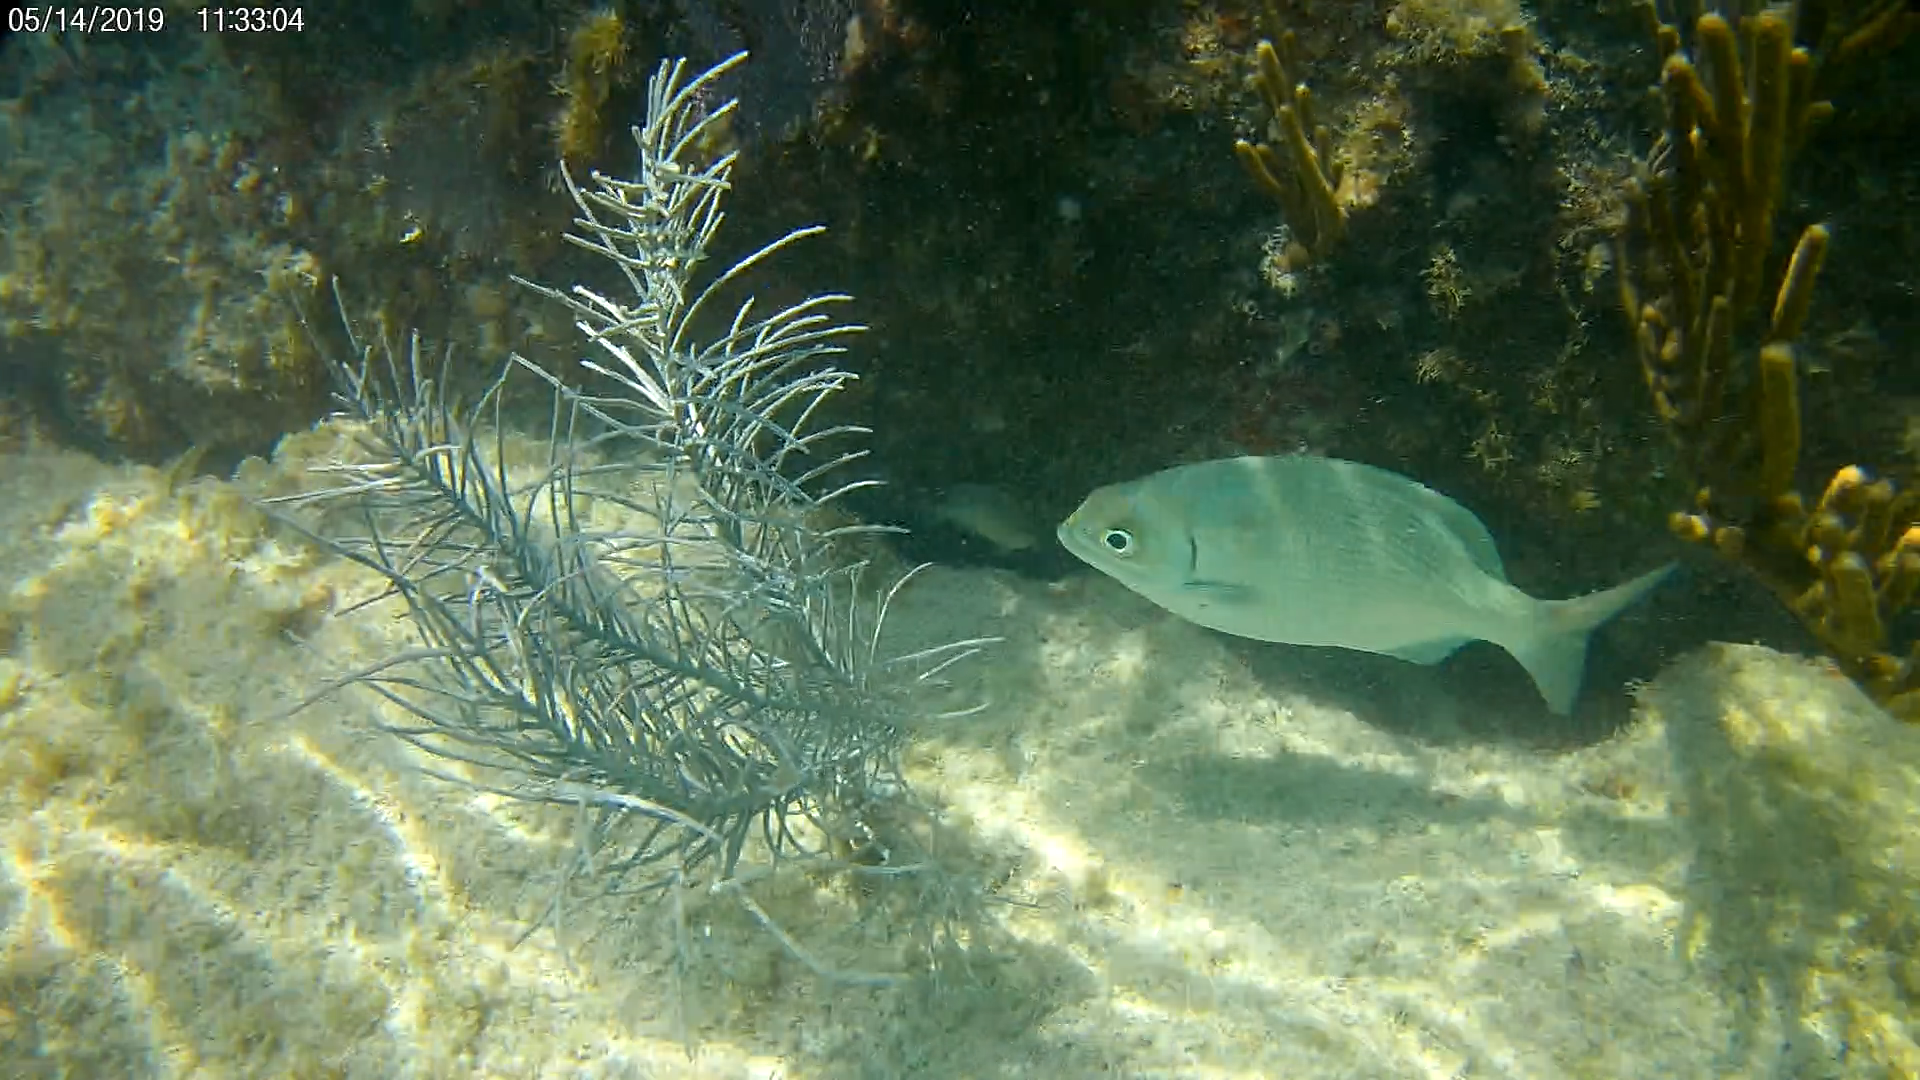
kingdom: Animalia
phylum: Chordata
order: Perciformes
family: Kyphosidae
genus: Kyphosus
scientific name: Kyphosus sectatrix
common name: Bermuda chub
